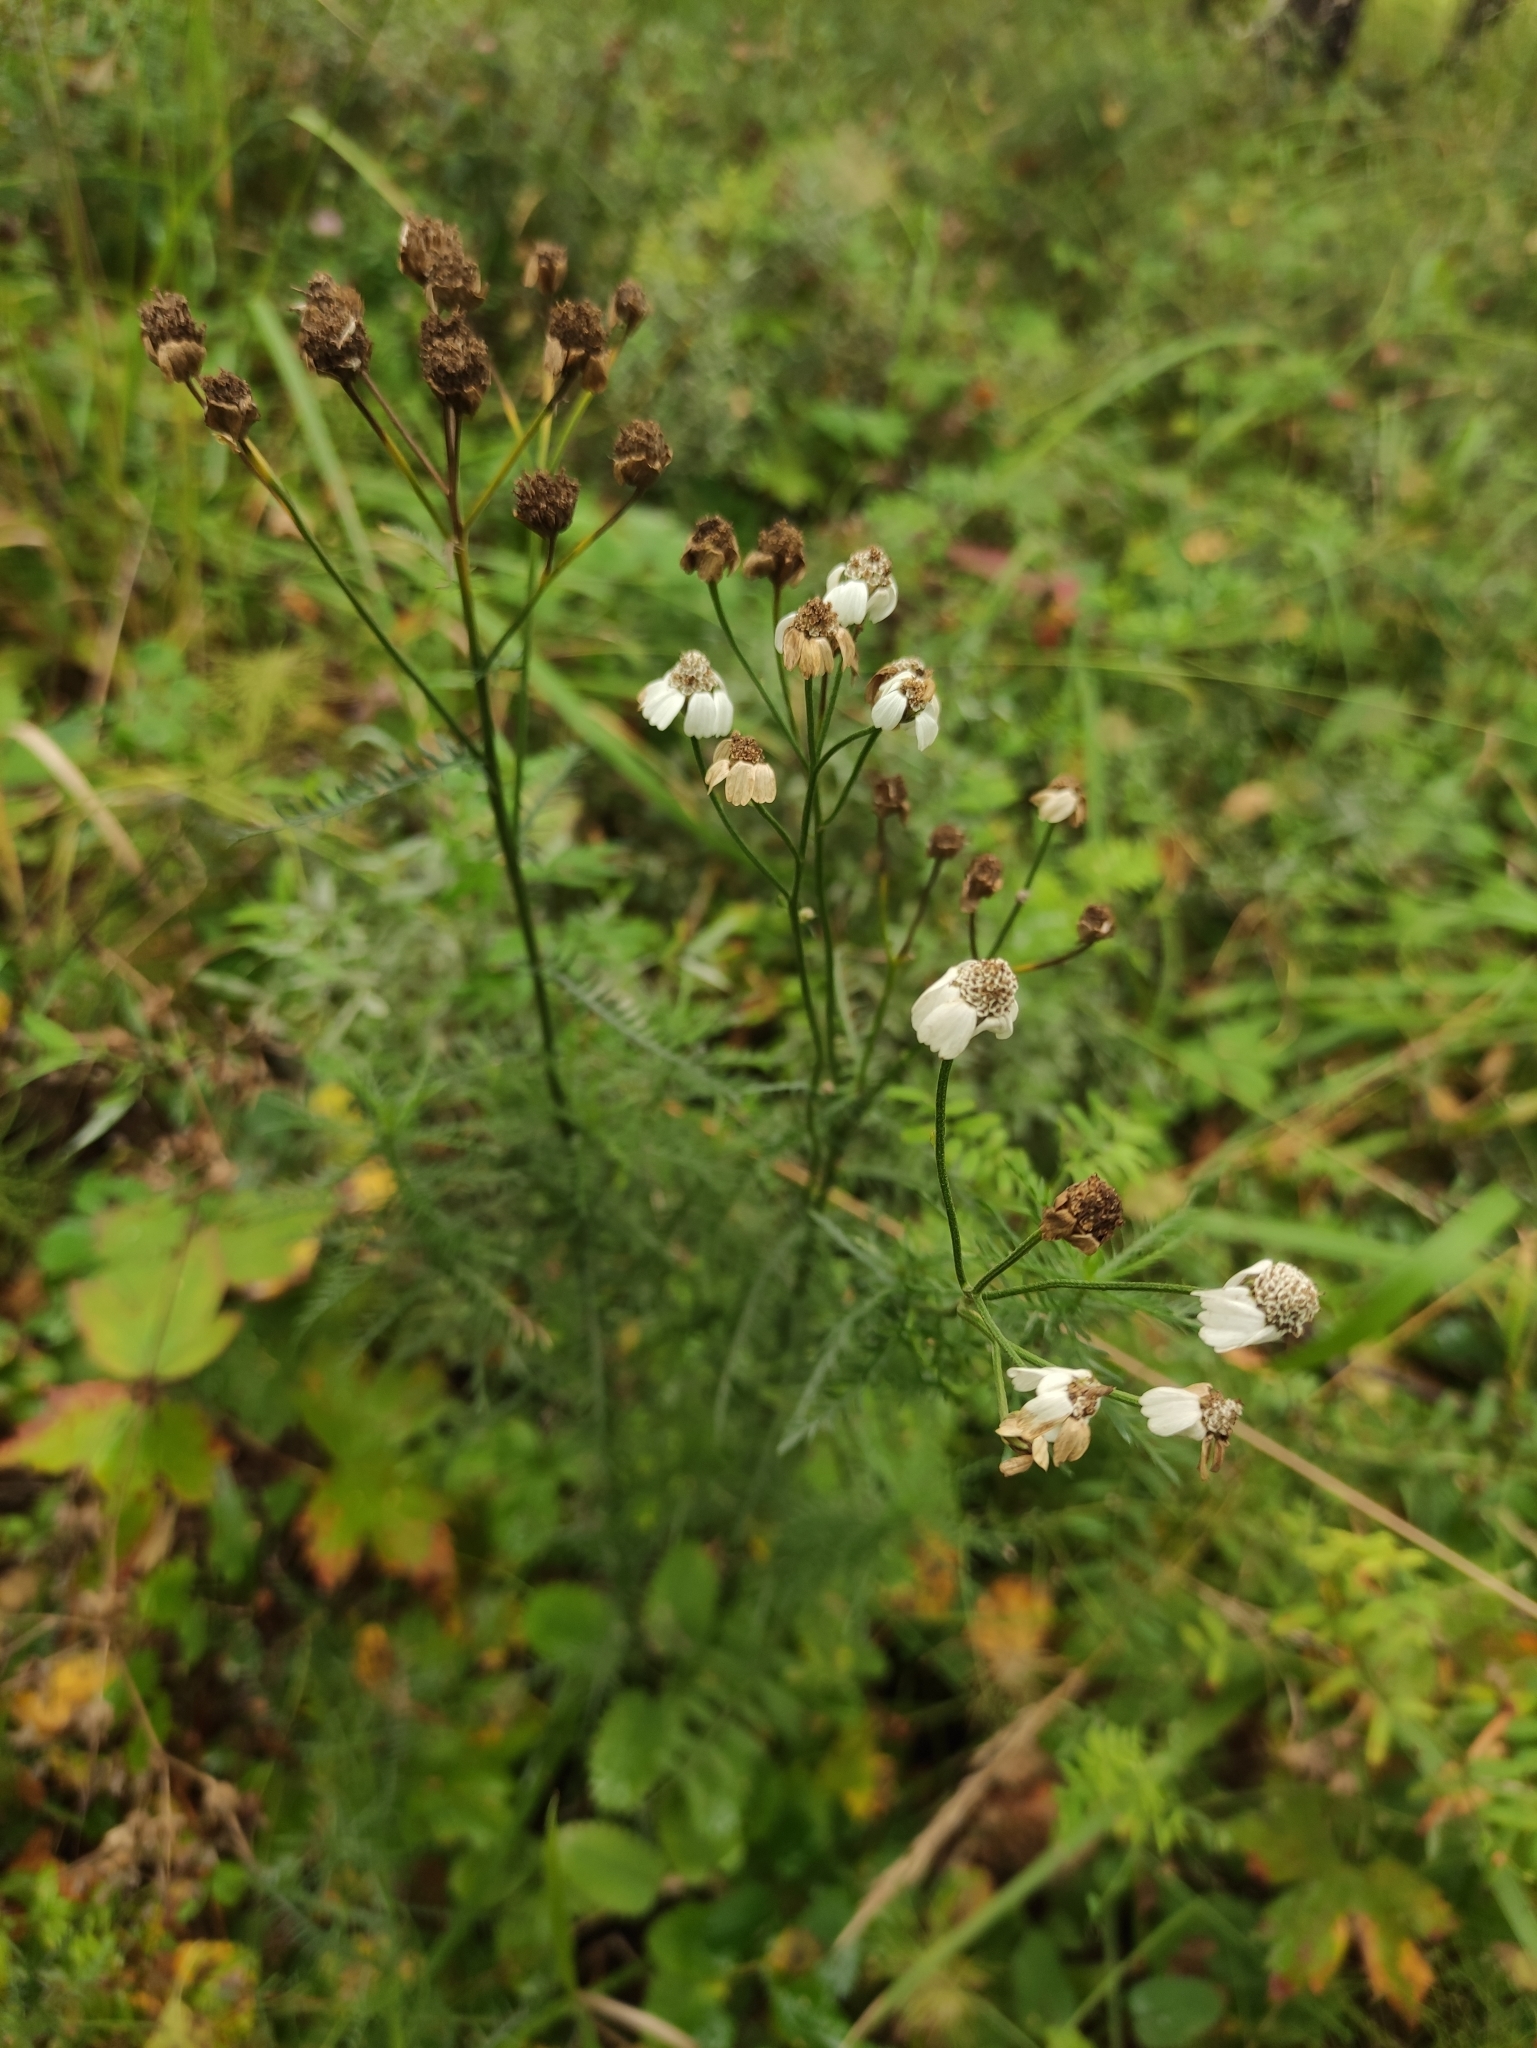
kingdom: Plantae
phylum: Tracheophyta
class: Magnoliopsida
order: Asterales
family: Asteraceae
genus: Achillea
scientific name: Achillea impatiens
